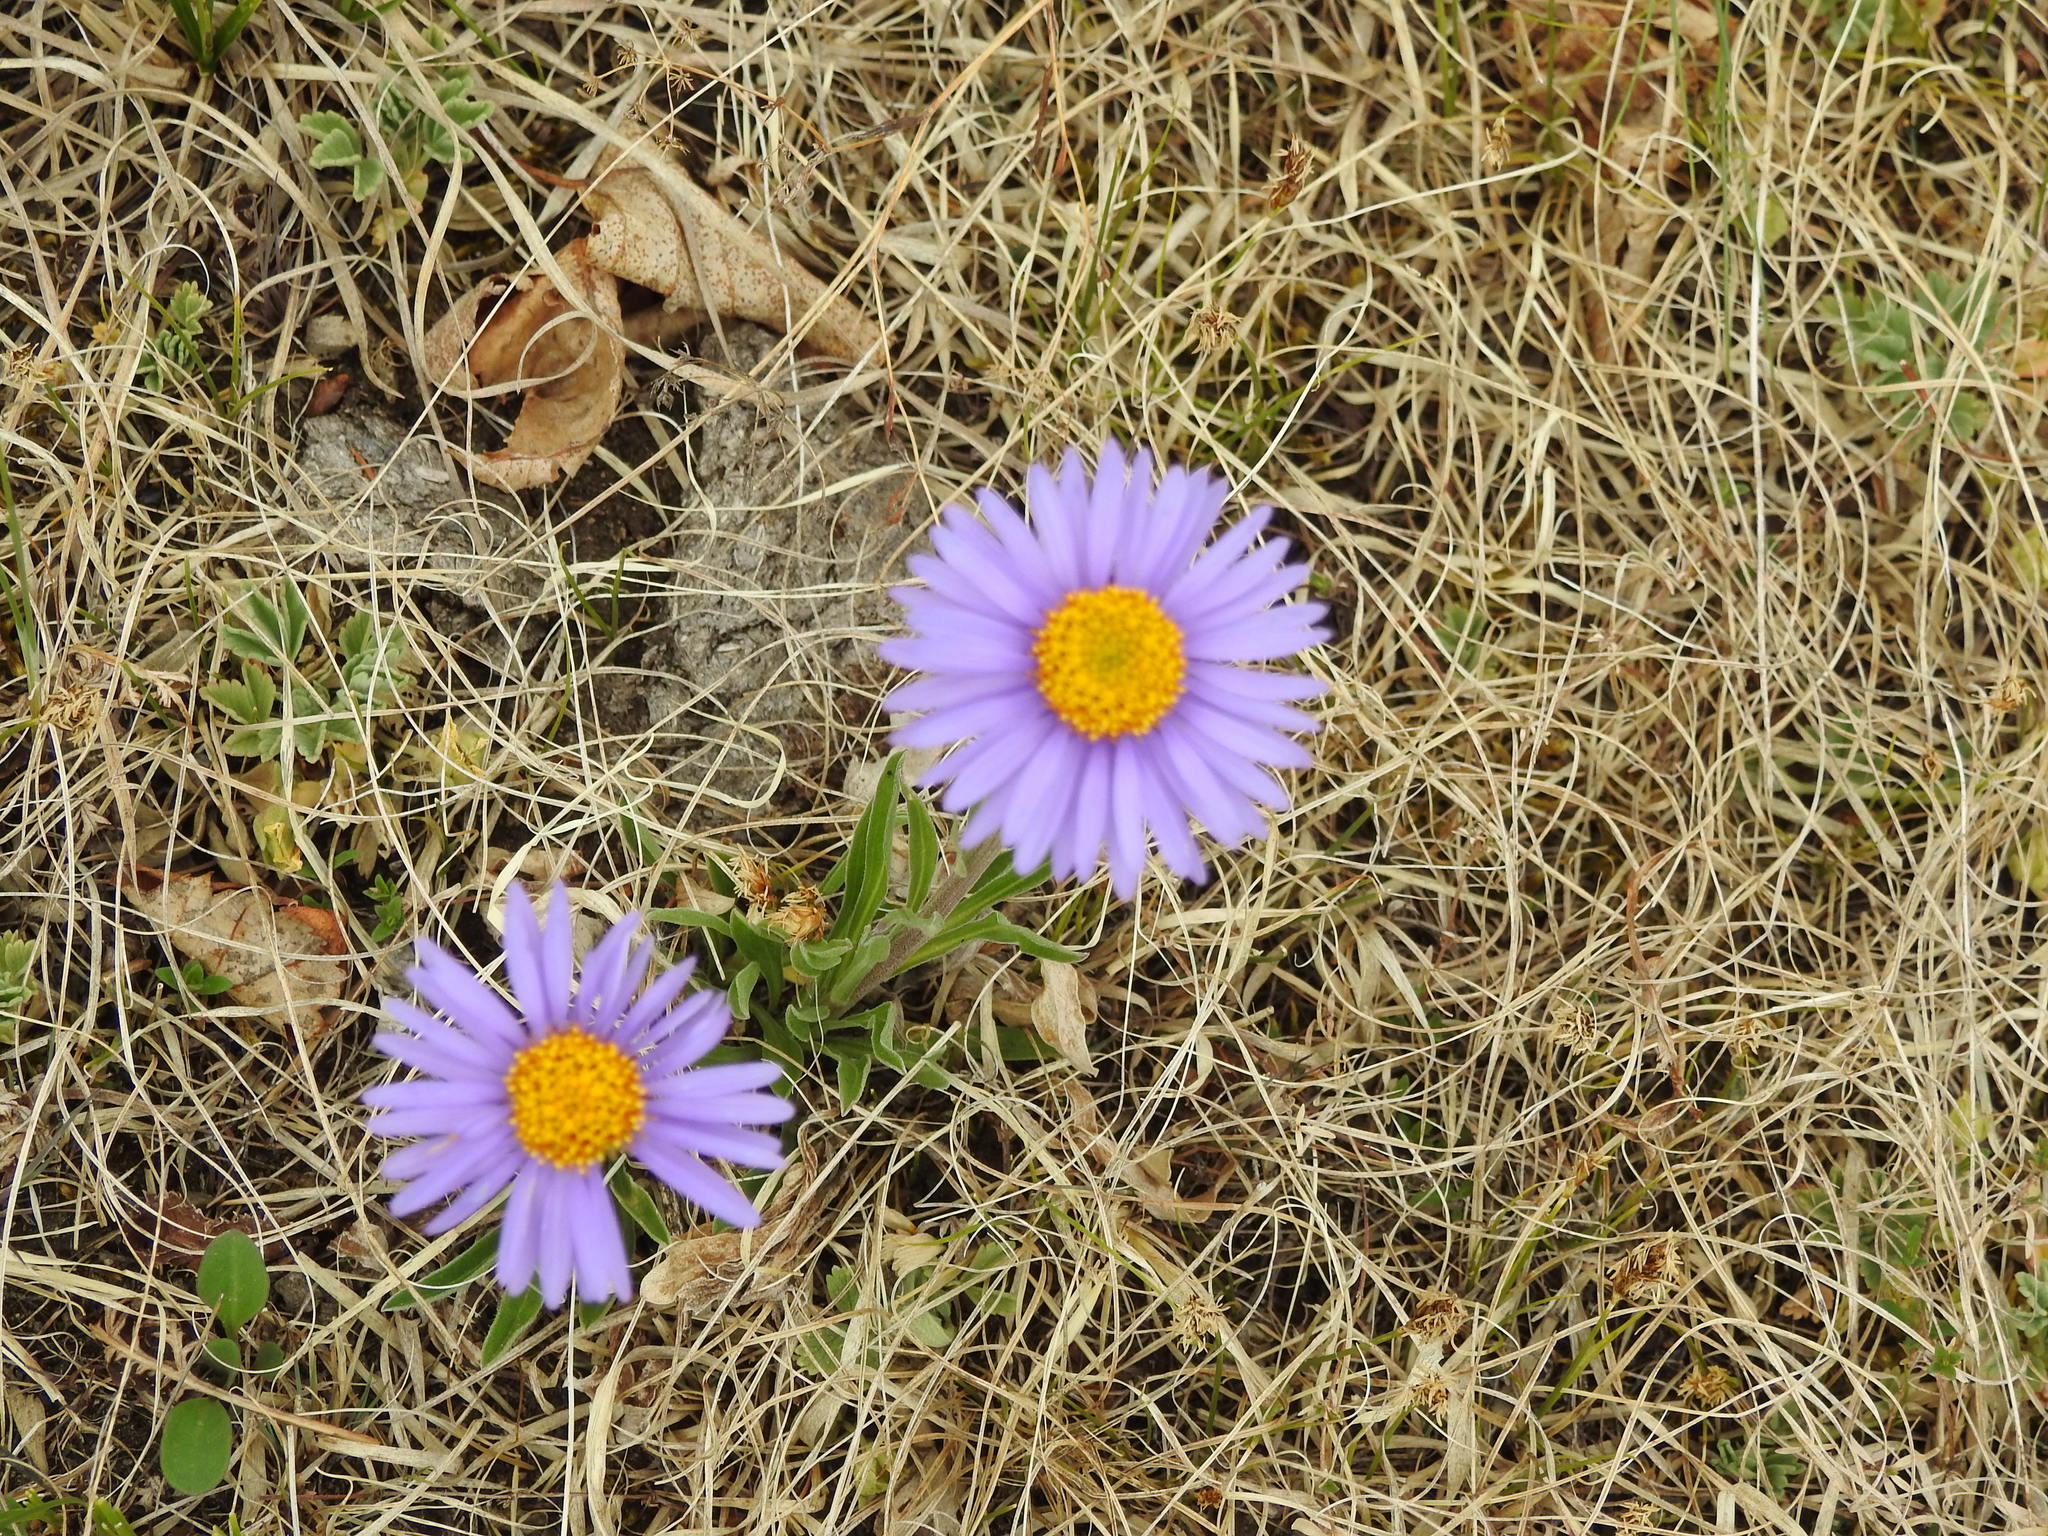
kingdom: Plantae
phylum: Tracheophyta
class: Magnoliopsida
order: Asterales
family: Asteraceae
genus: Aster
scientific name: Aster alpinus
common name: Alpine aster
